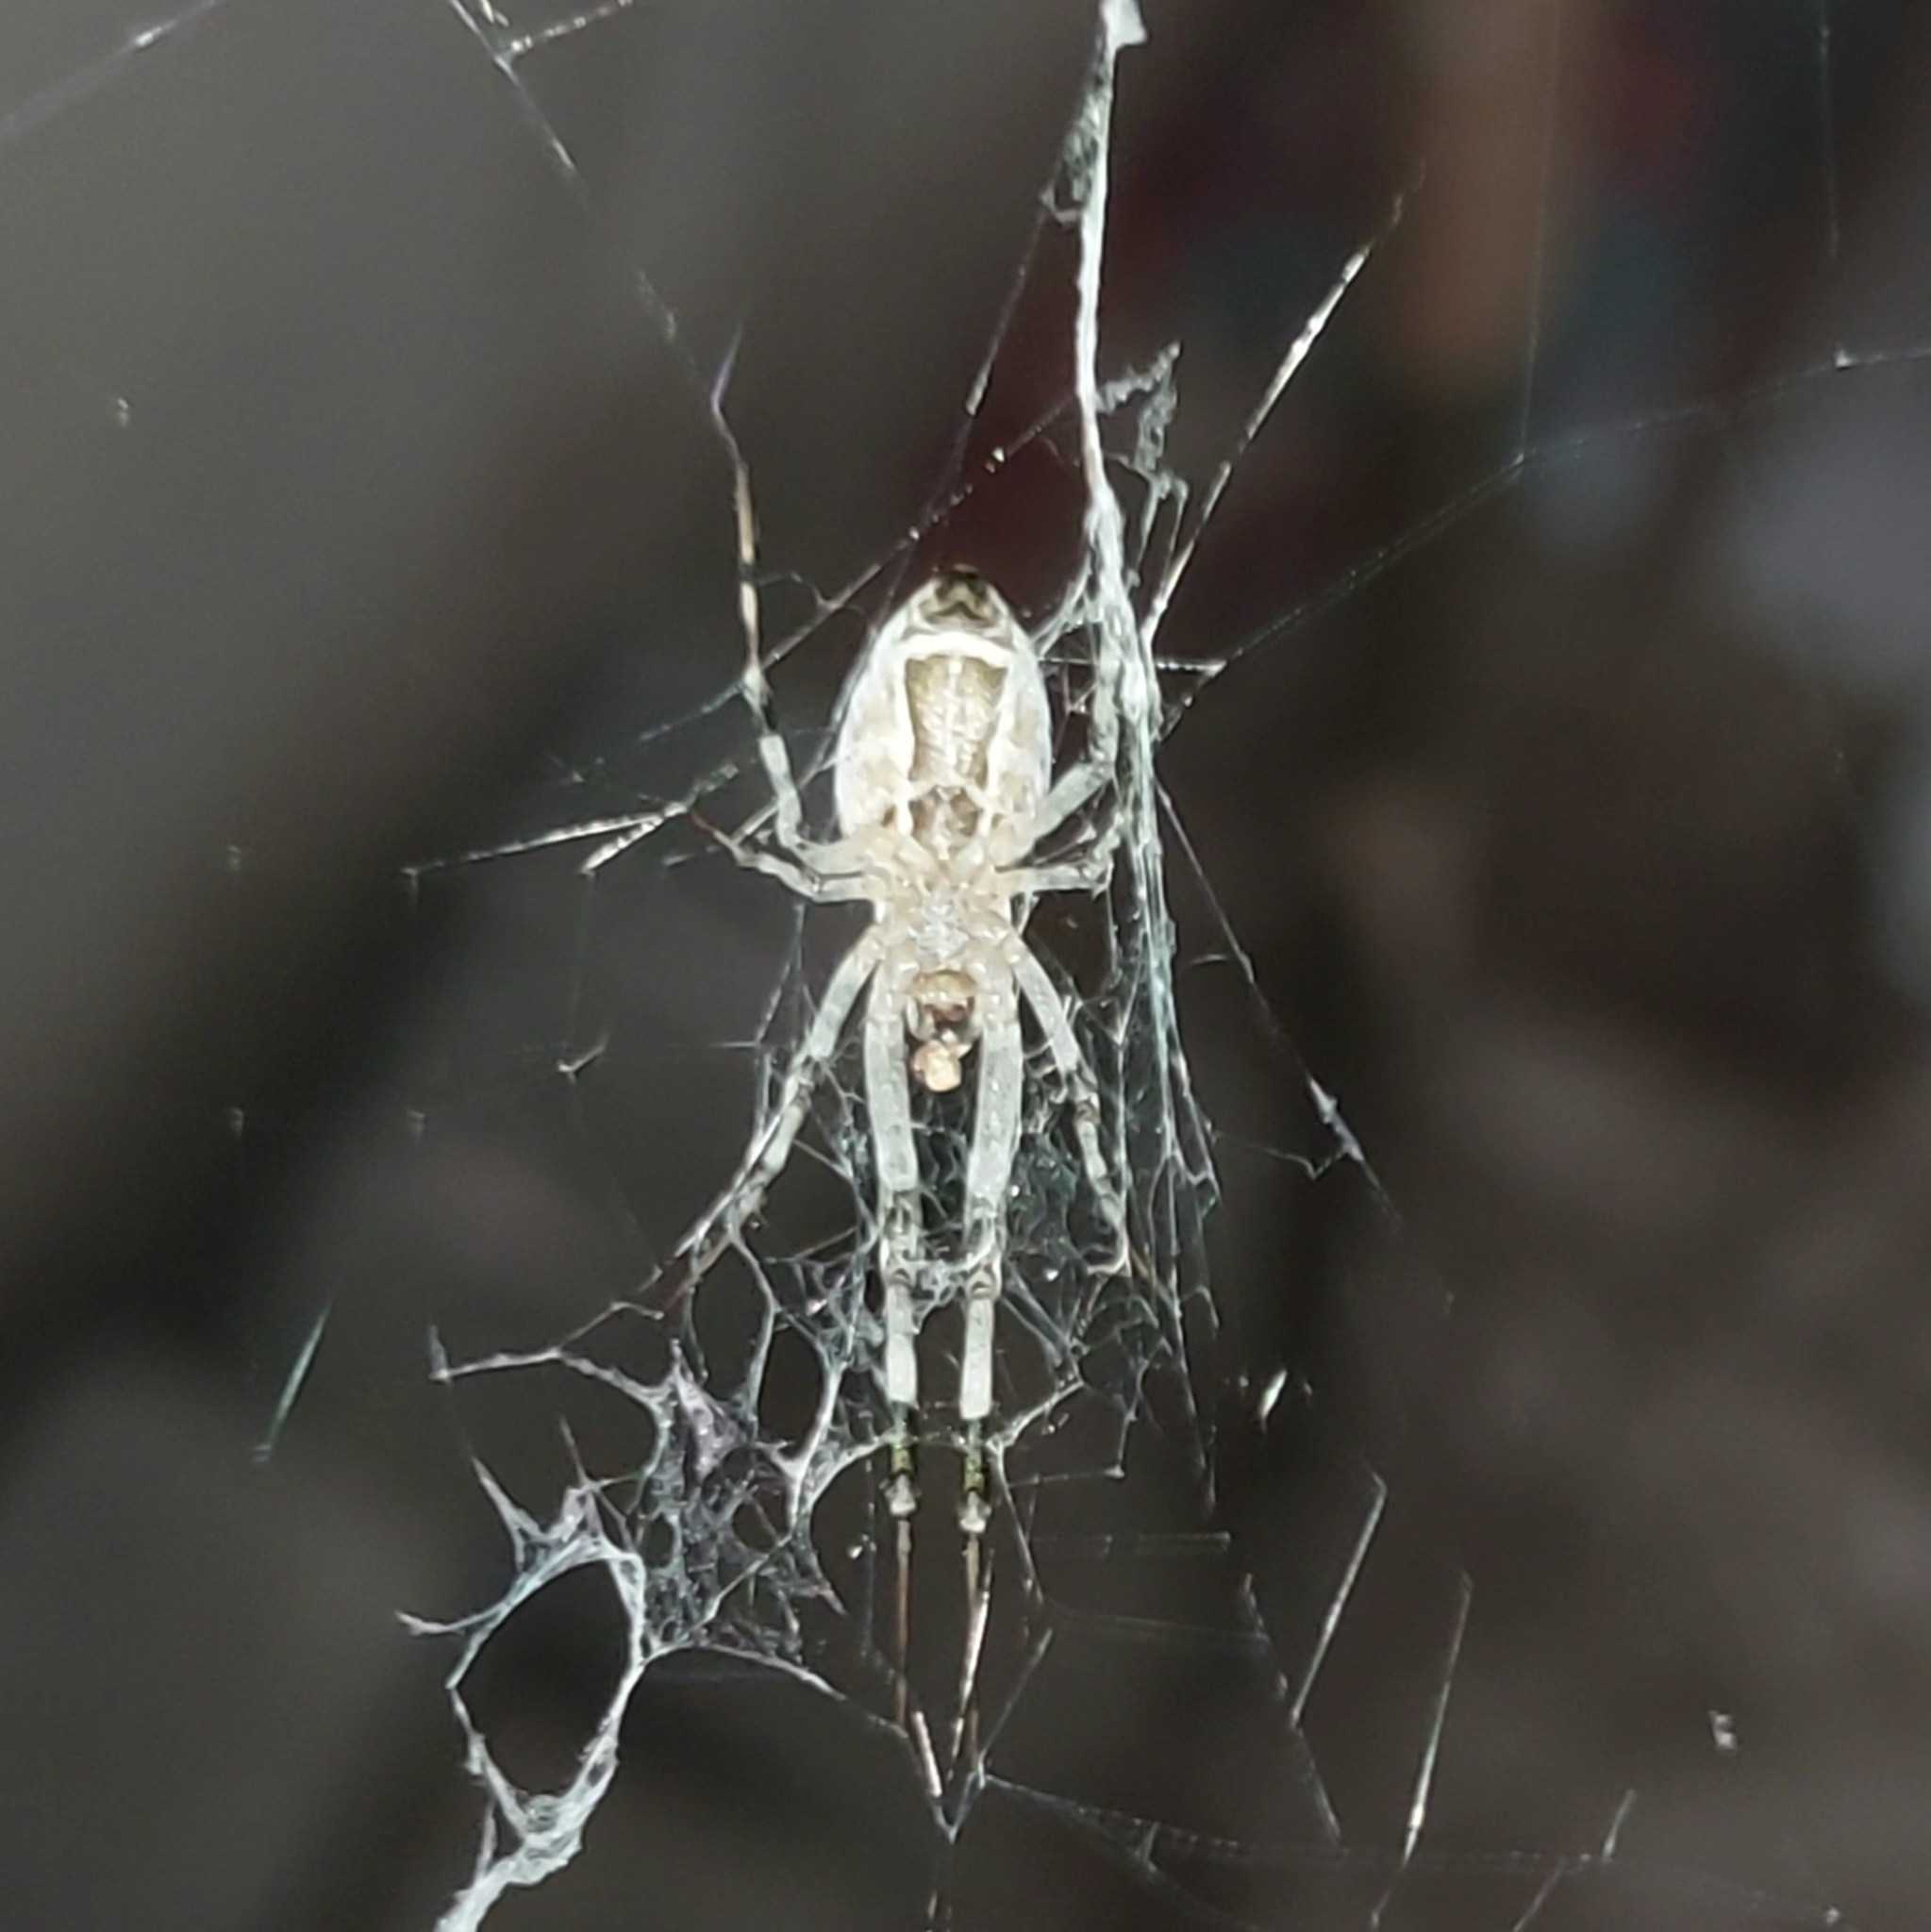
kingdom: Animalia
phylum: Arthropoda
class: Arachnida
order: Araneae
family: Uloboridae
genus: Zosis
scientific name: Zosis geniculata
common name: Hackled orb weavers
